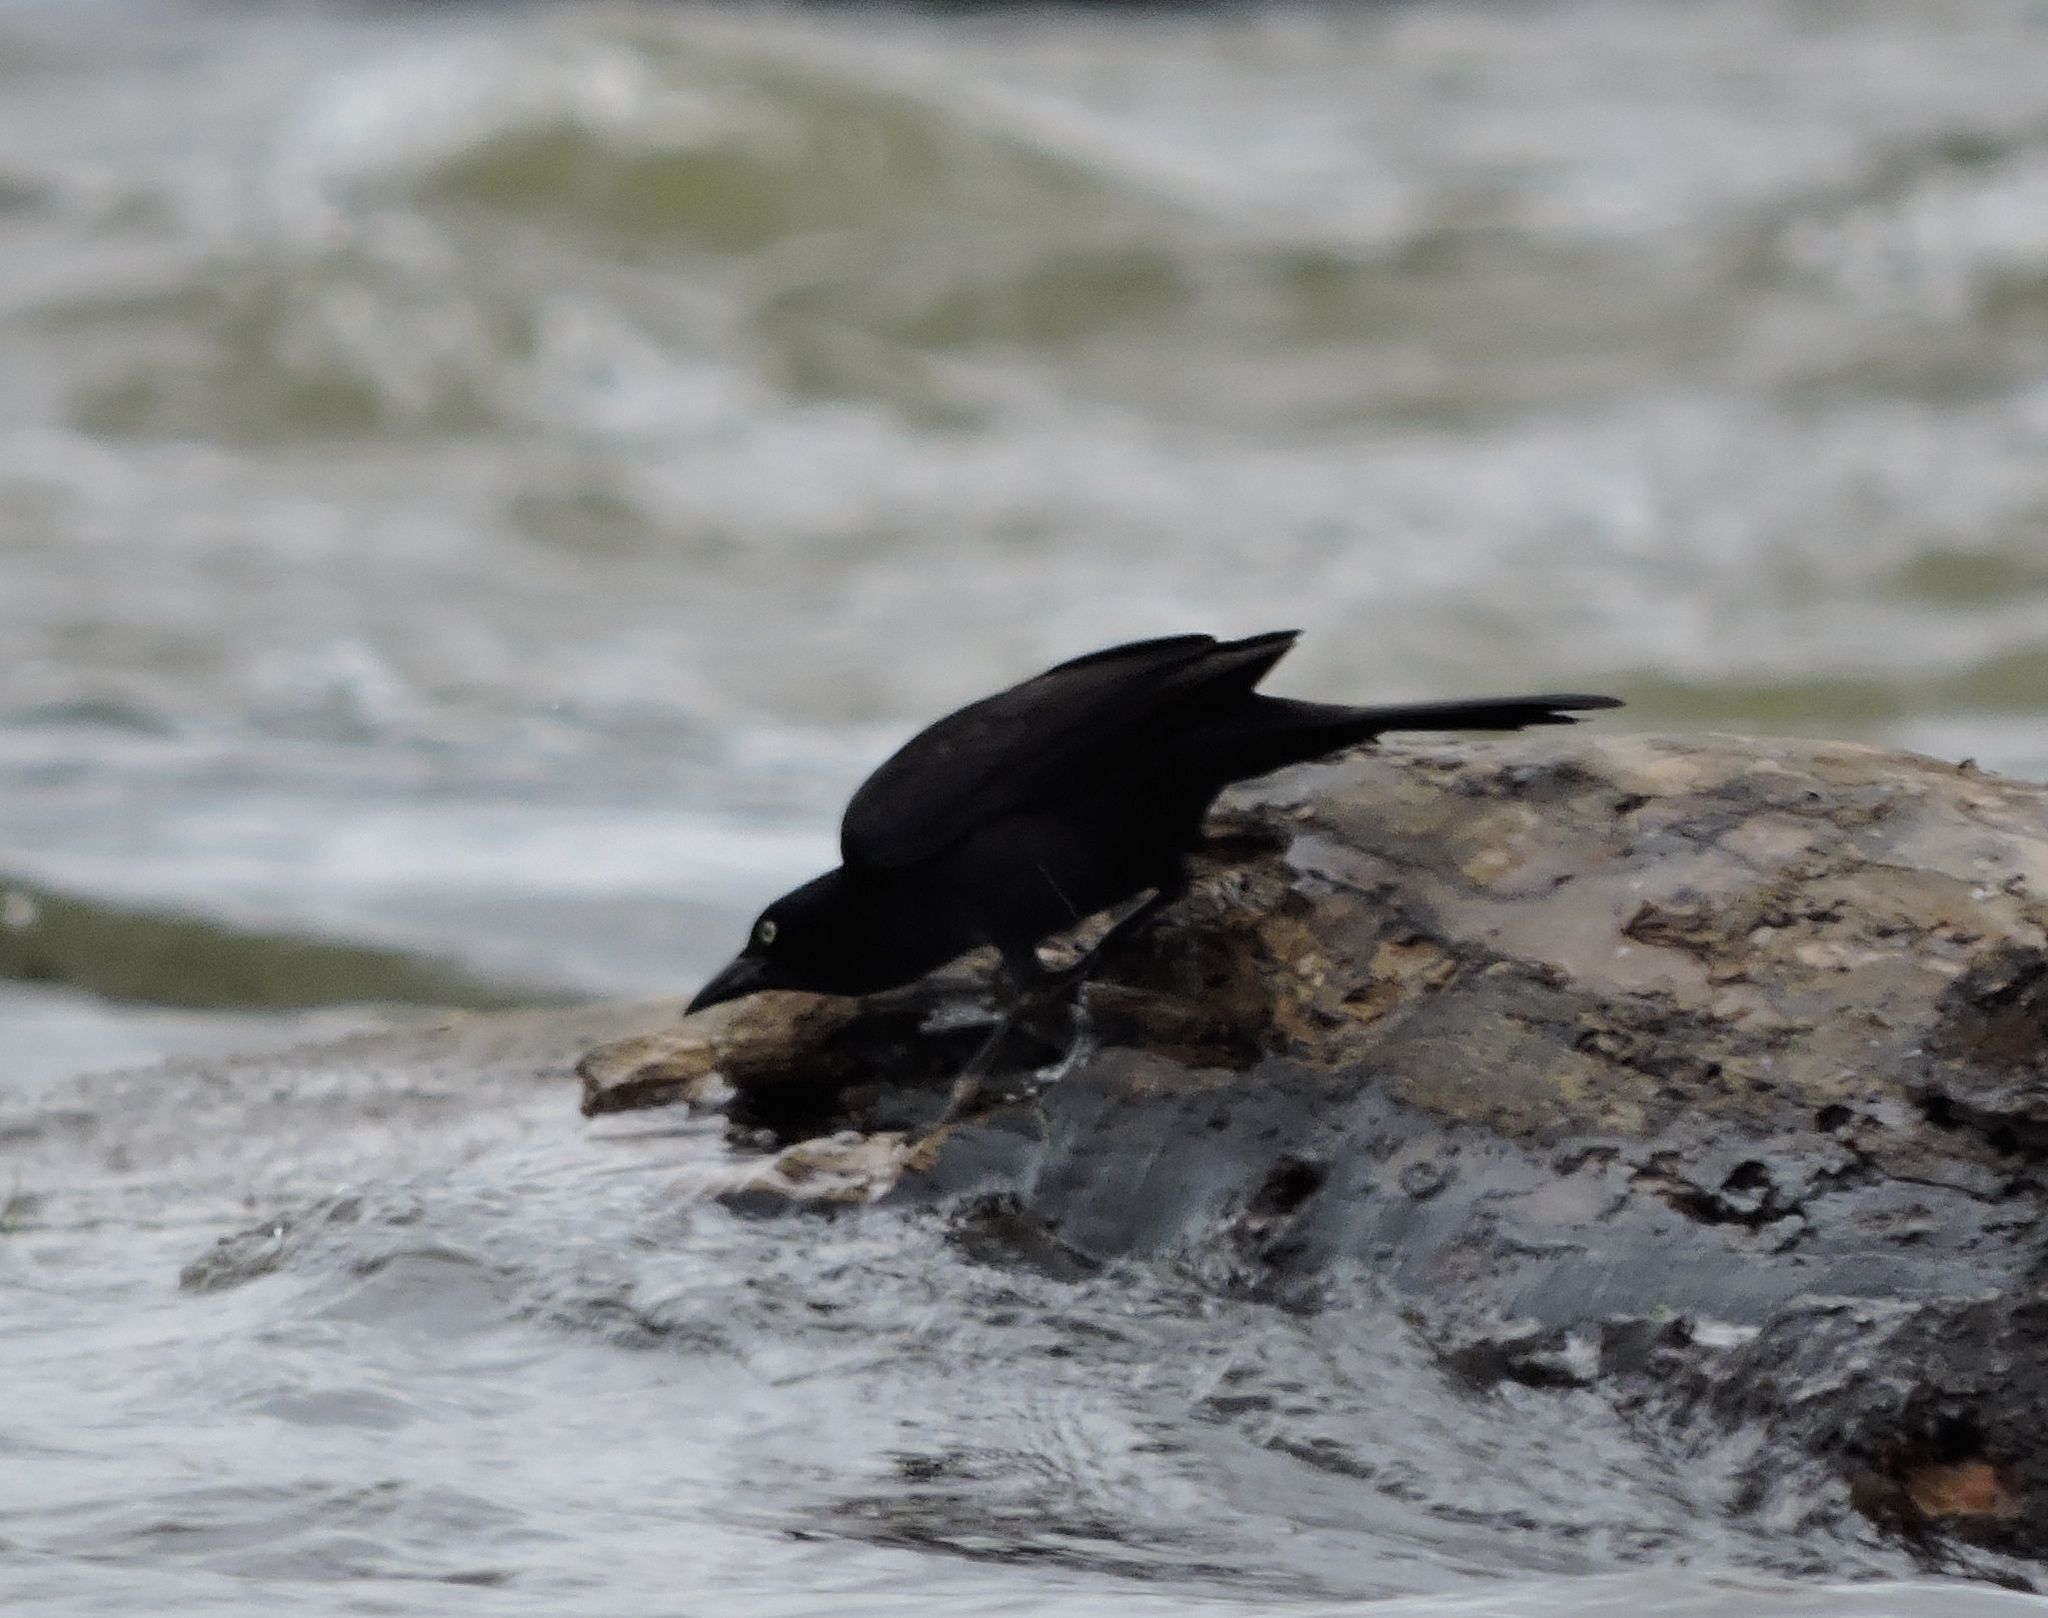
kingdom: Animalia
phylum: Chordata
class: Aves
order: Passeriformes
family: Icteridae
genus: Quiscalus
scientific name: Quiscalus quiscula
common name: Common grackle
